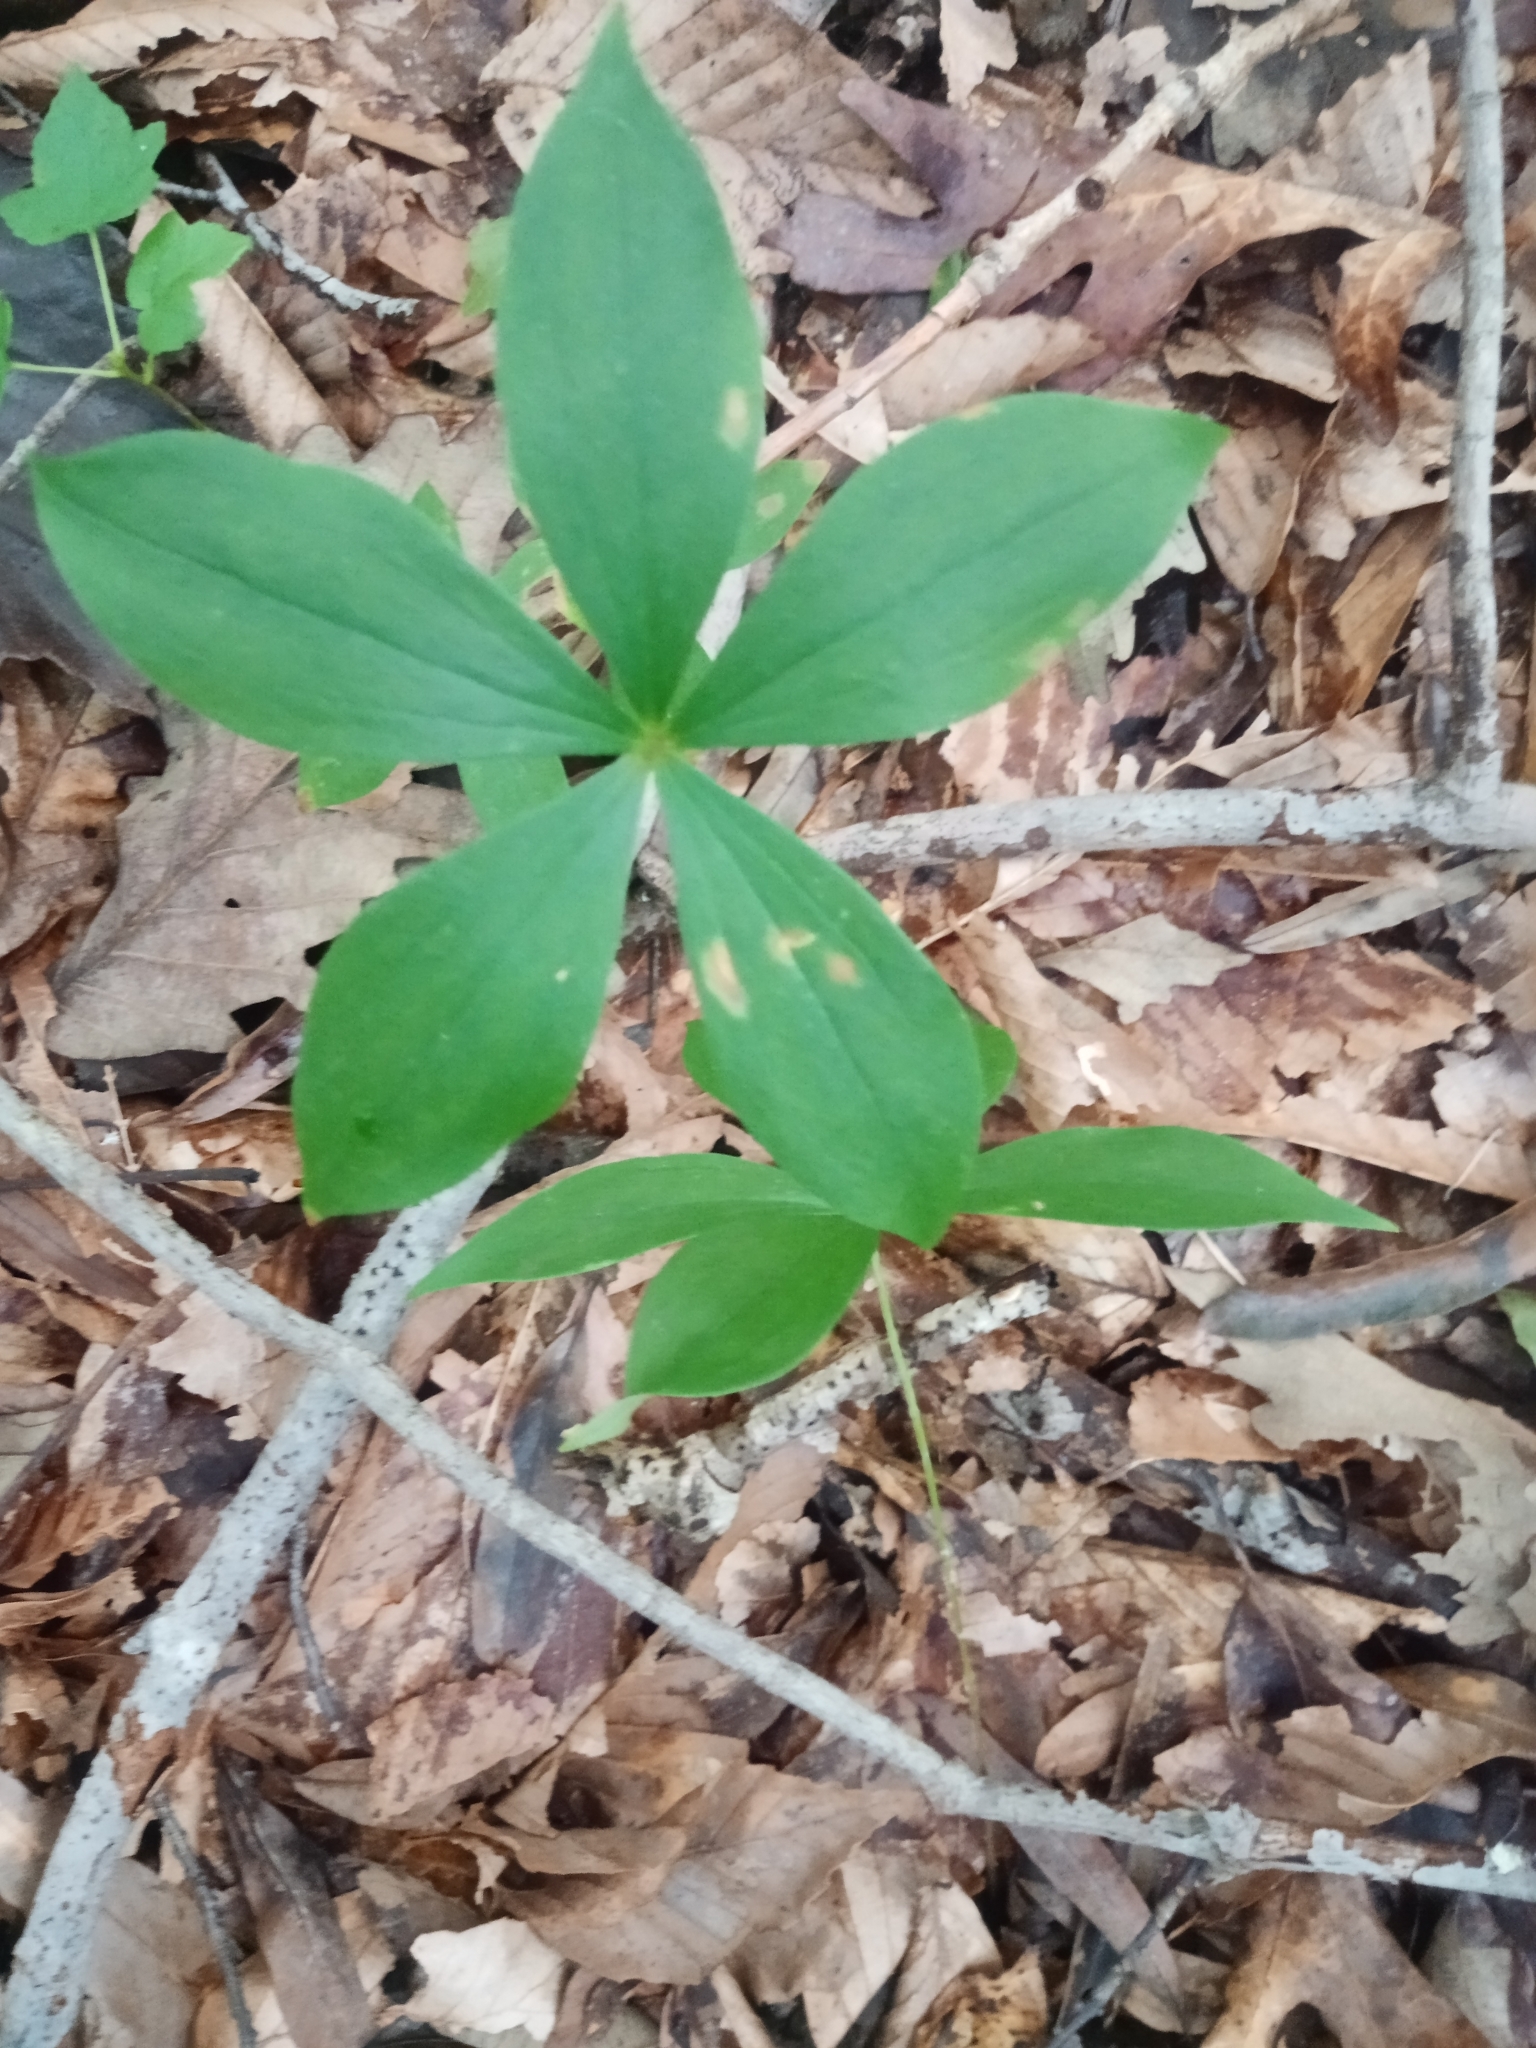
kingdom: Plantae
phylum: Tracheophyta
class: Liliopsida
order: Liliales
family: Liliaceae
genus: Medeola
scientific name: Medeola virginiana
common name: Indian cucumber-root
